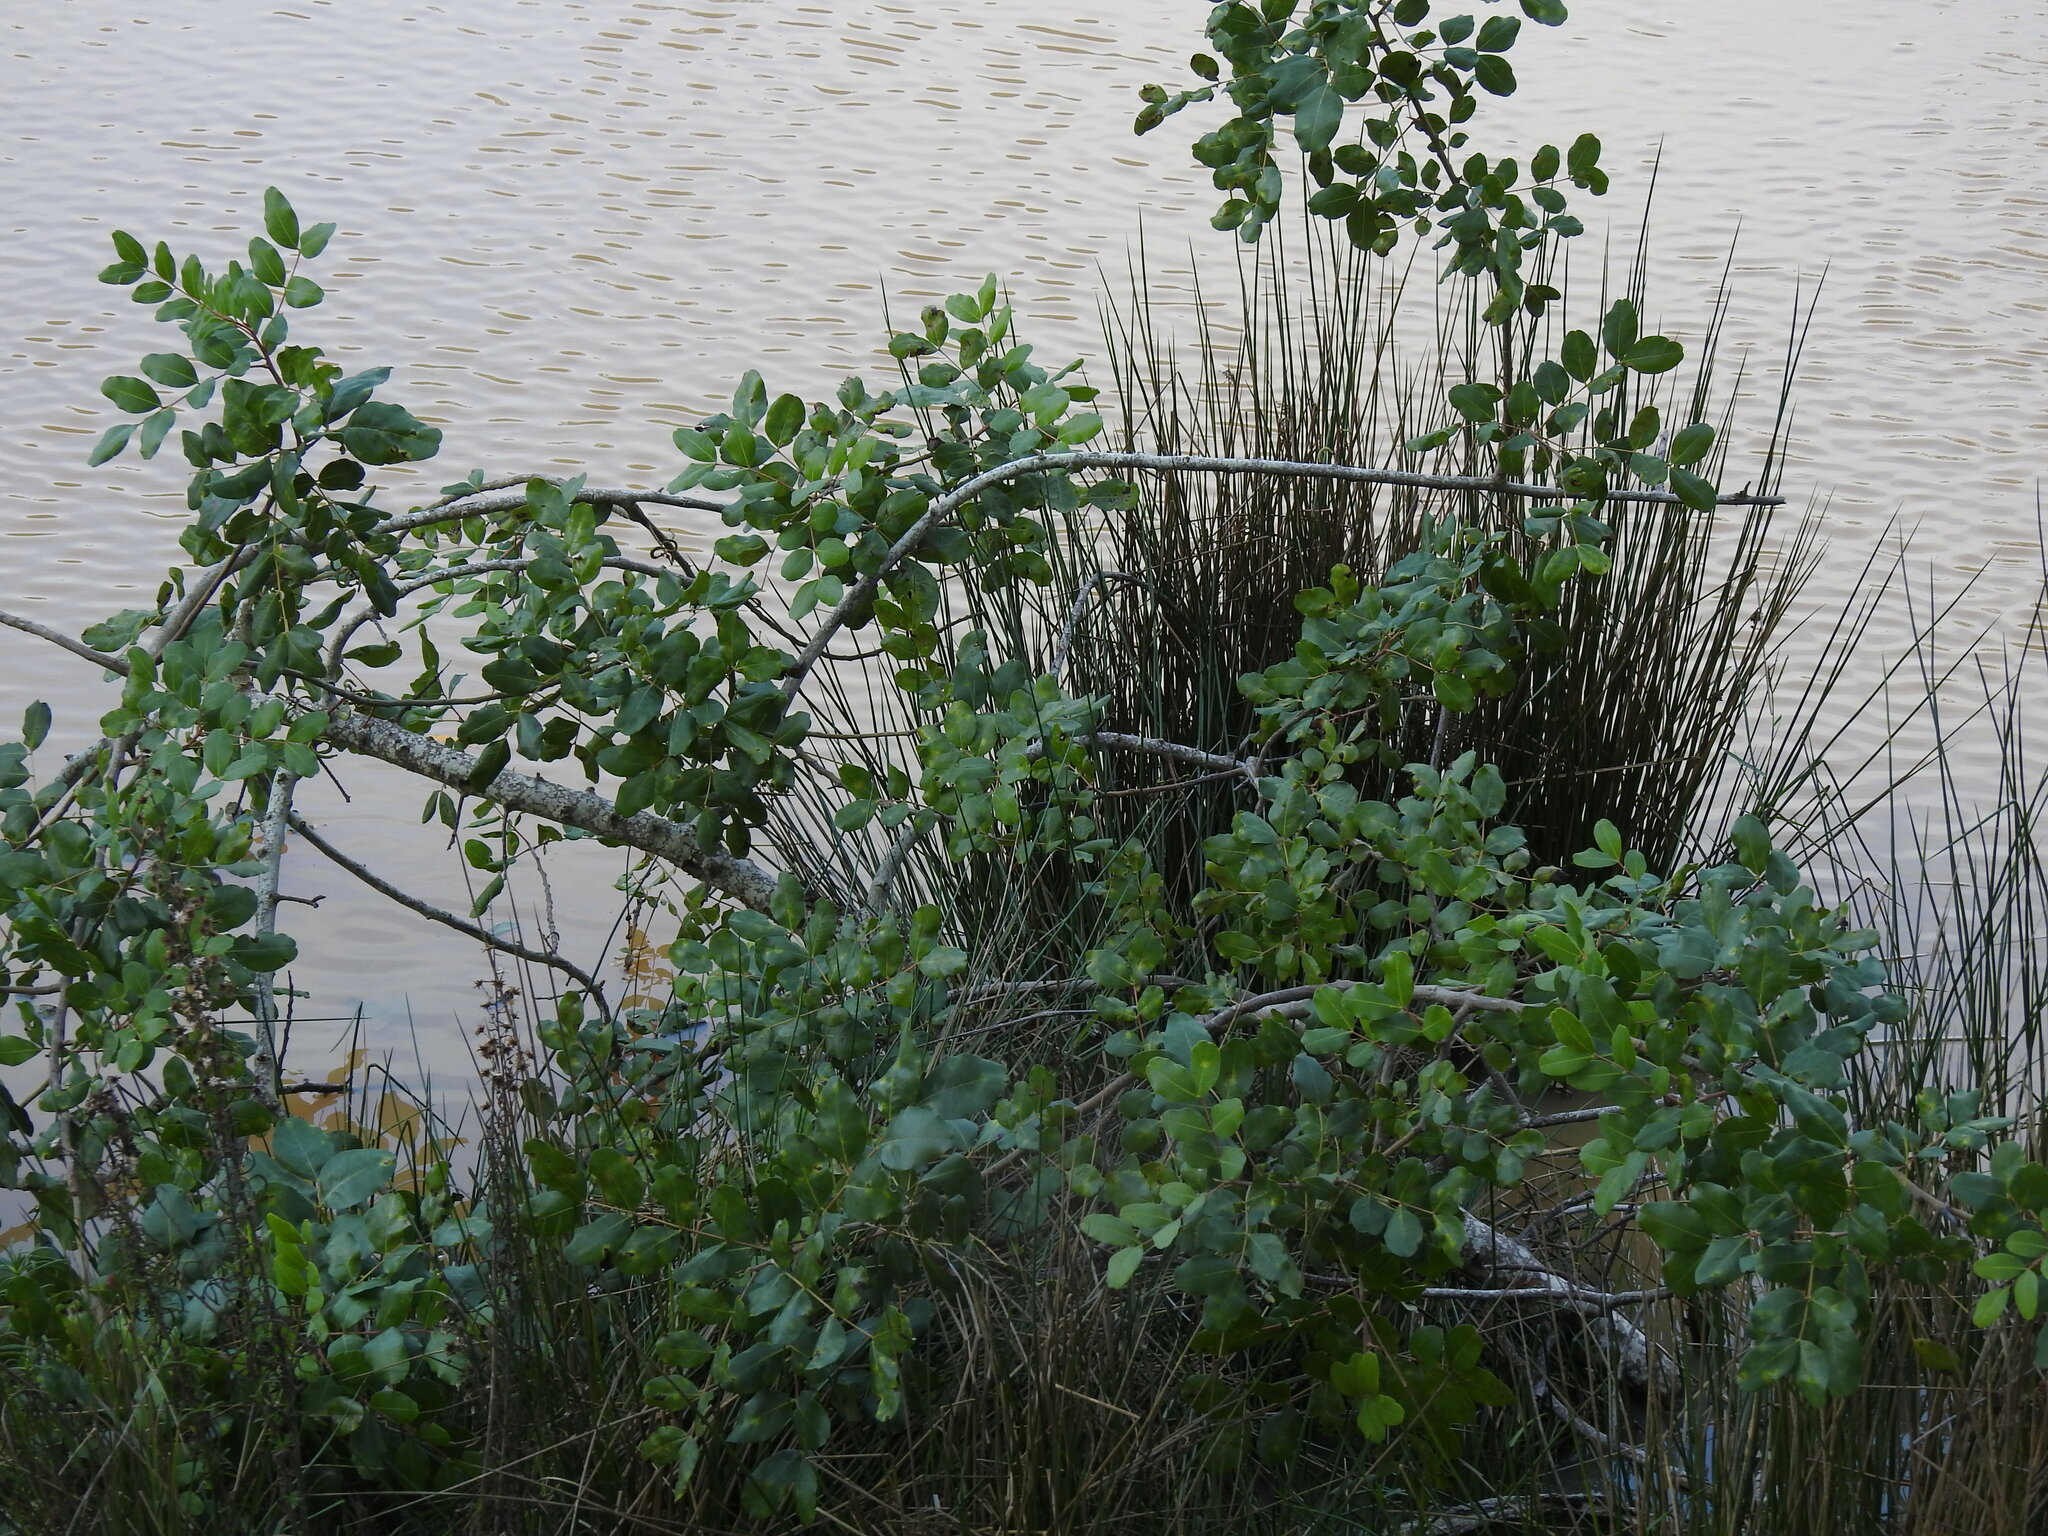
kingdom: Plantae
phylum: Tracheophyta
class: Magnoliopsida
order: Fabales
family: Fabaceae
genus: Ceratonia
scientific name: Ceratonia siliqua
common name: Carob
